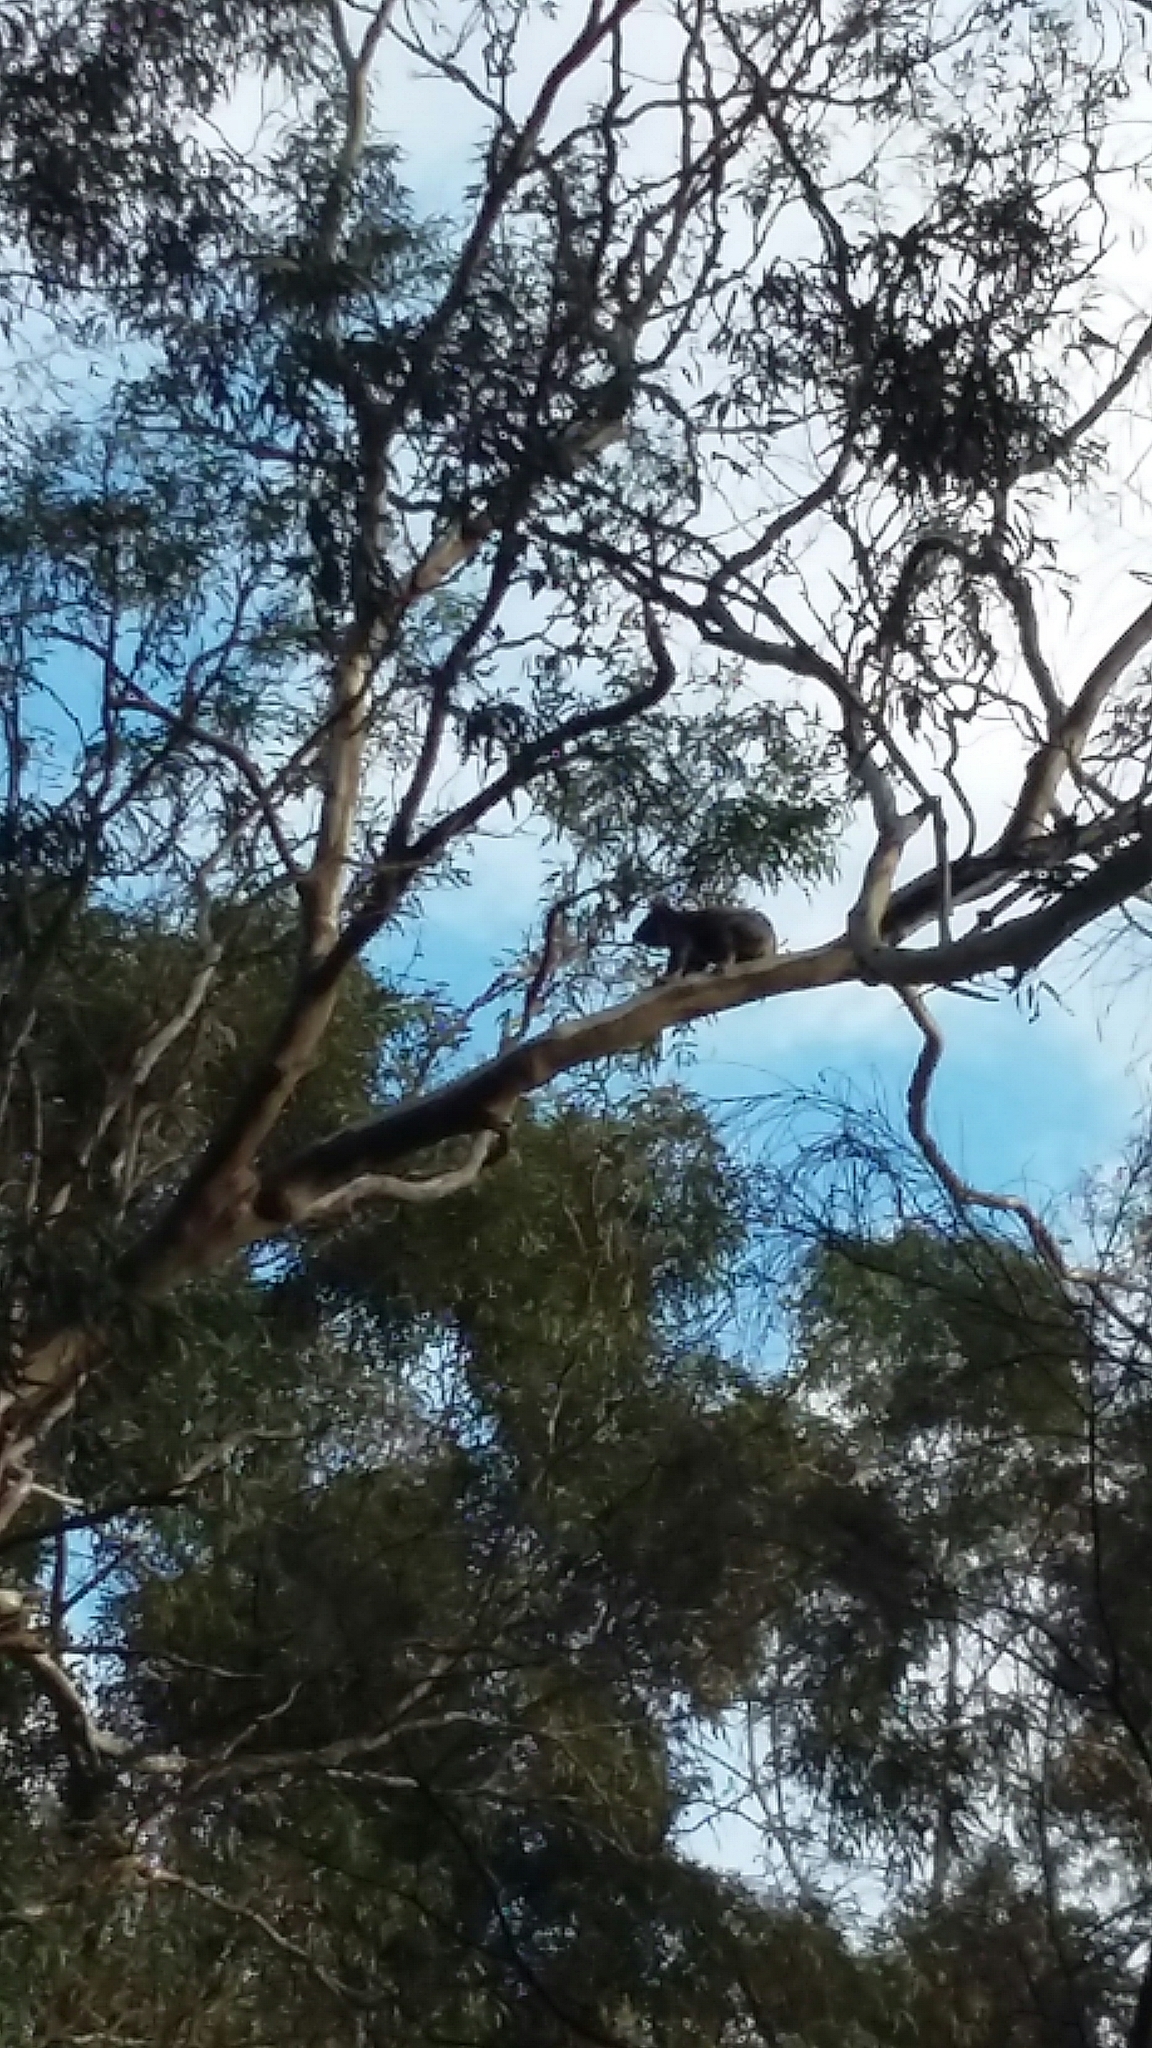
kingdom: Animalia
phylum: Chordata
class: Mammalia
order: Diprotodontia
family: Phascolarctidae
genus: Phascolarctos
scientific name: Phascolarctos cinereus
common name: Koala
